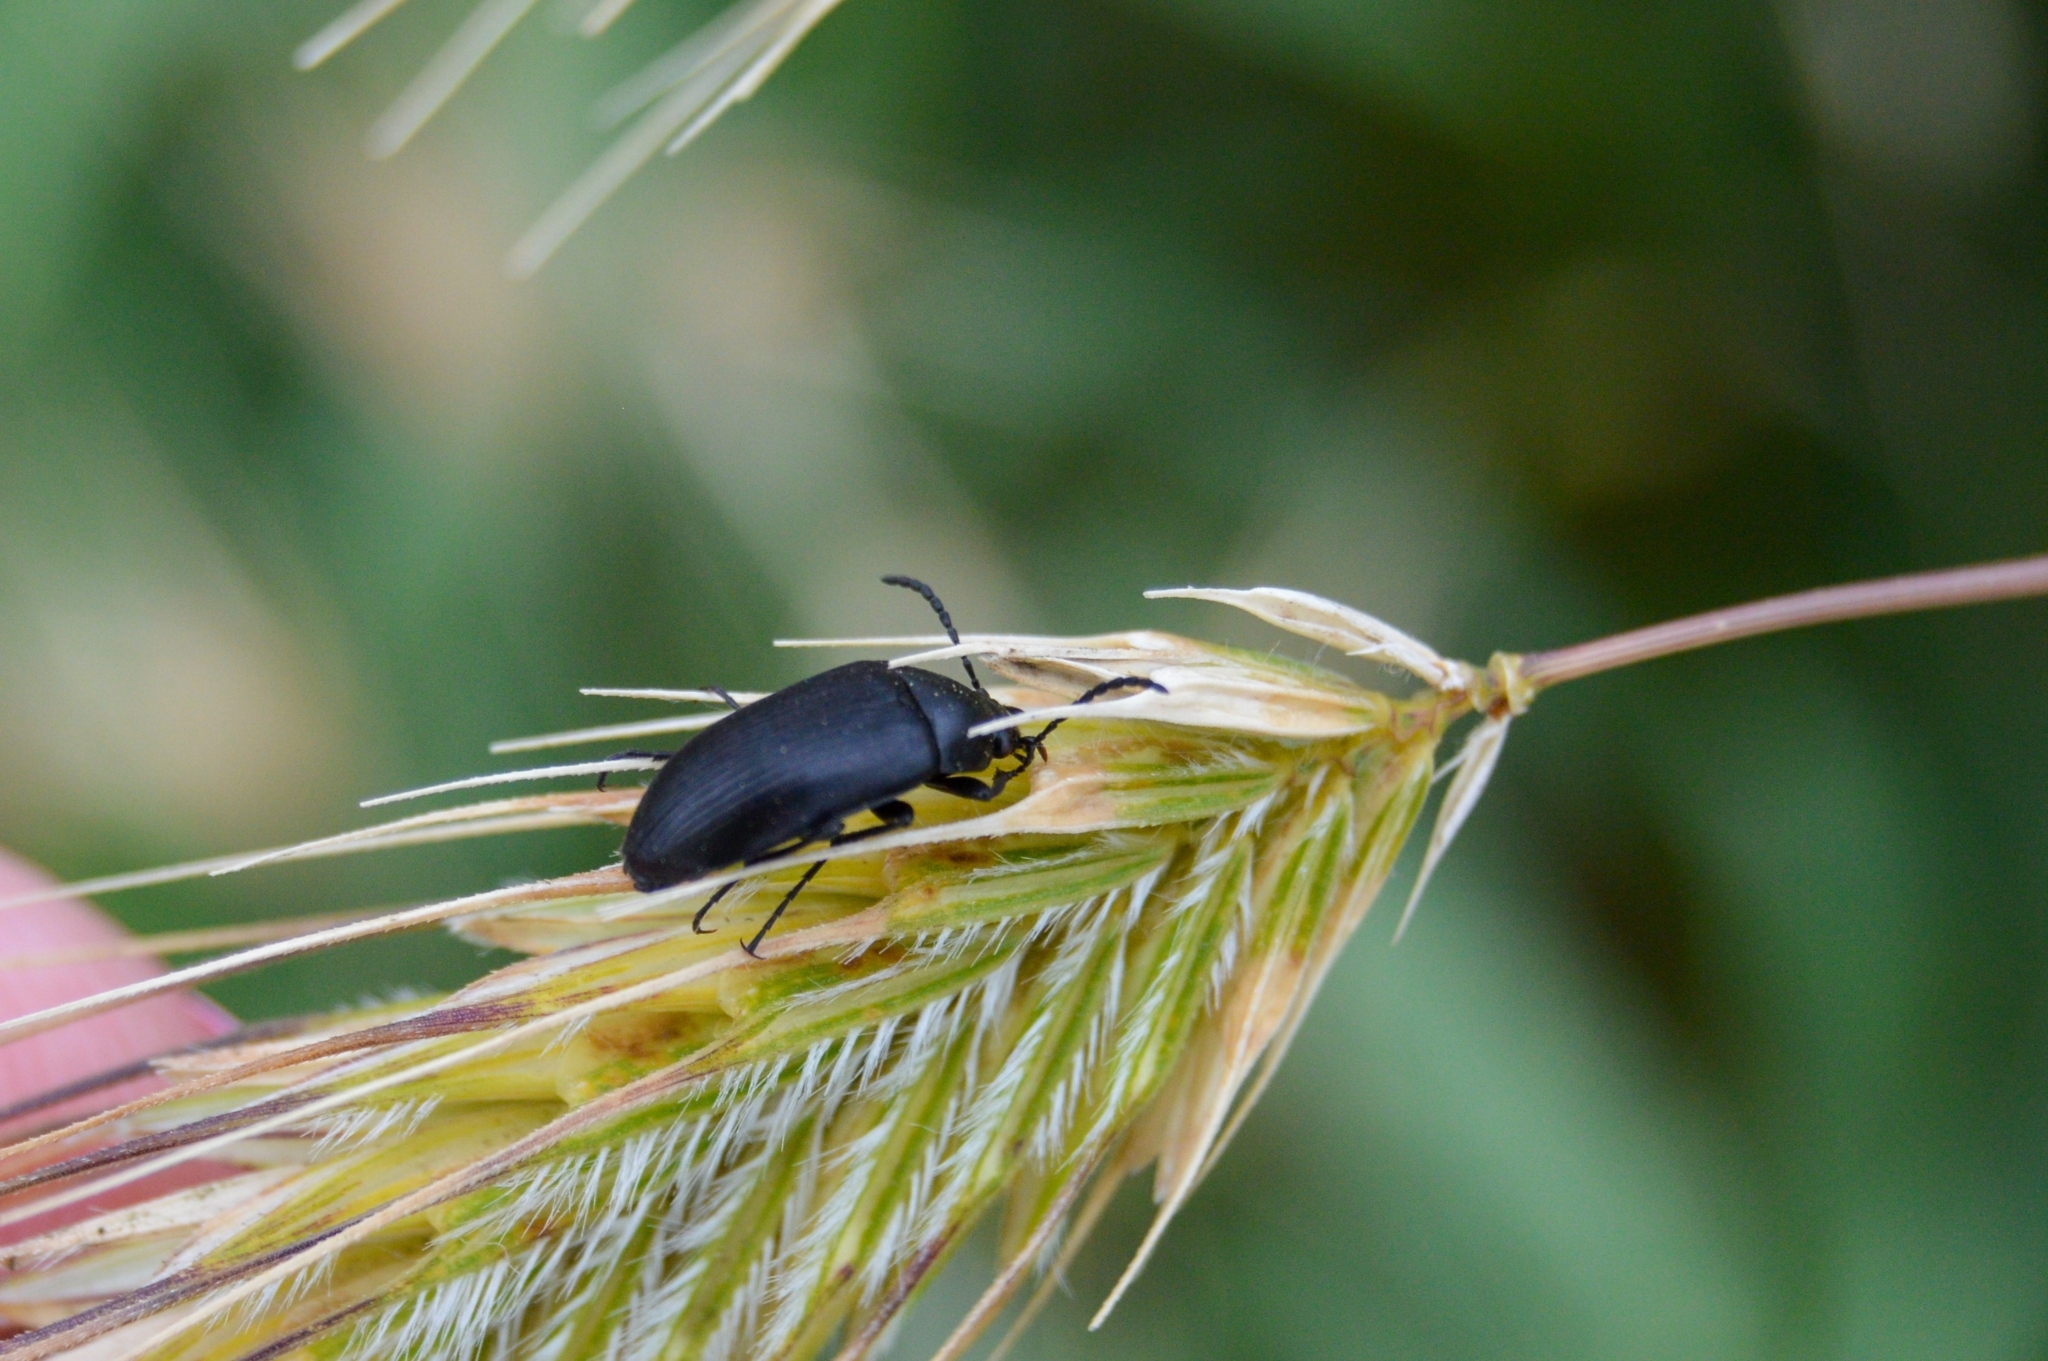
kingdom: Animalia
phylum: Arthropoda
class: Insecta
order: Coleoptera
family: Tenebrionidae
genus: Podonta
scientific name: Podonta nigrita
